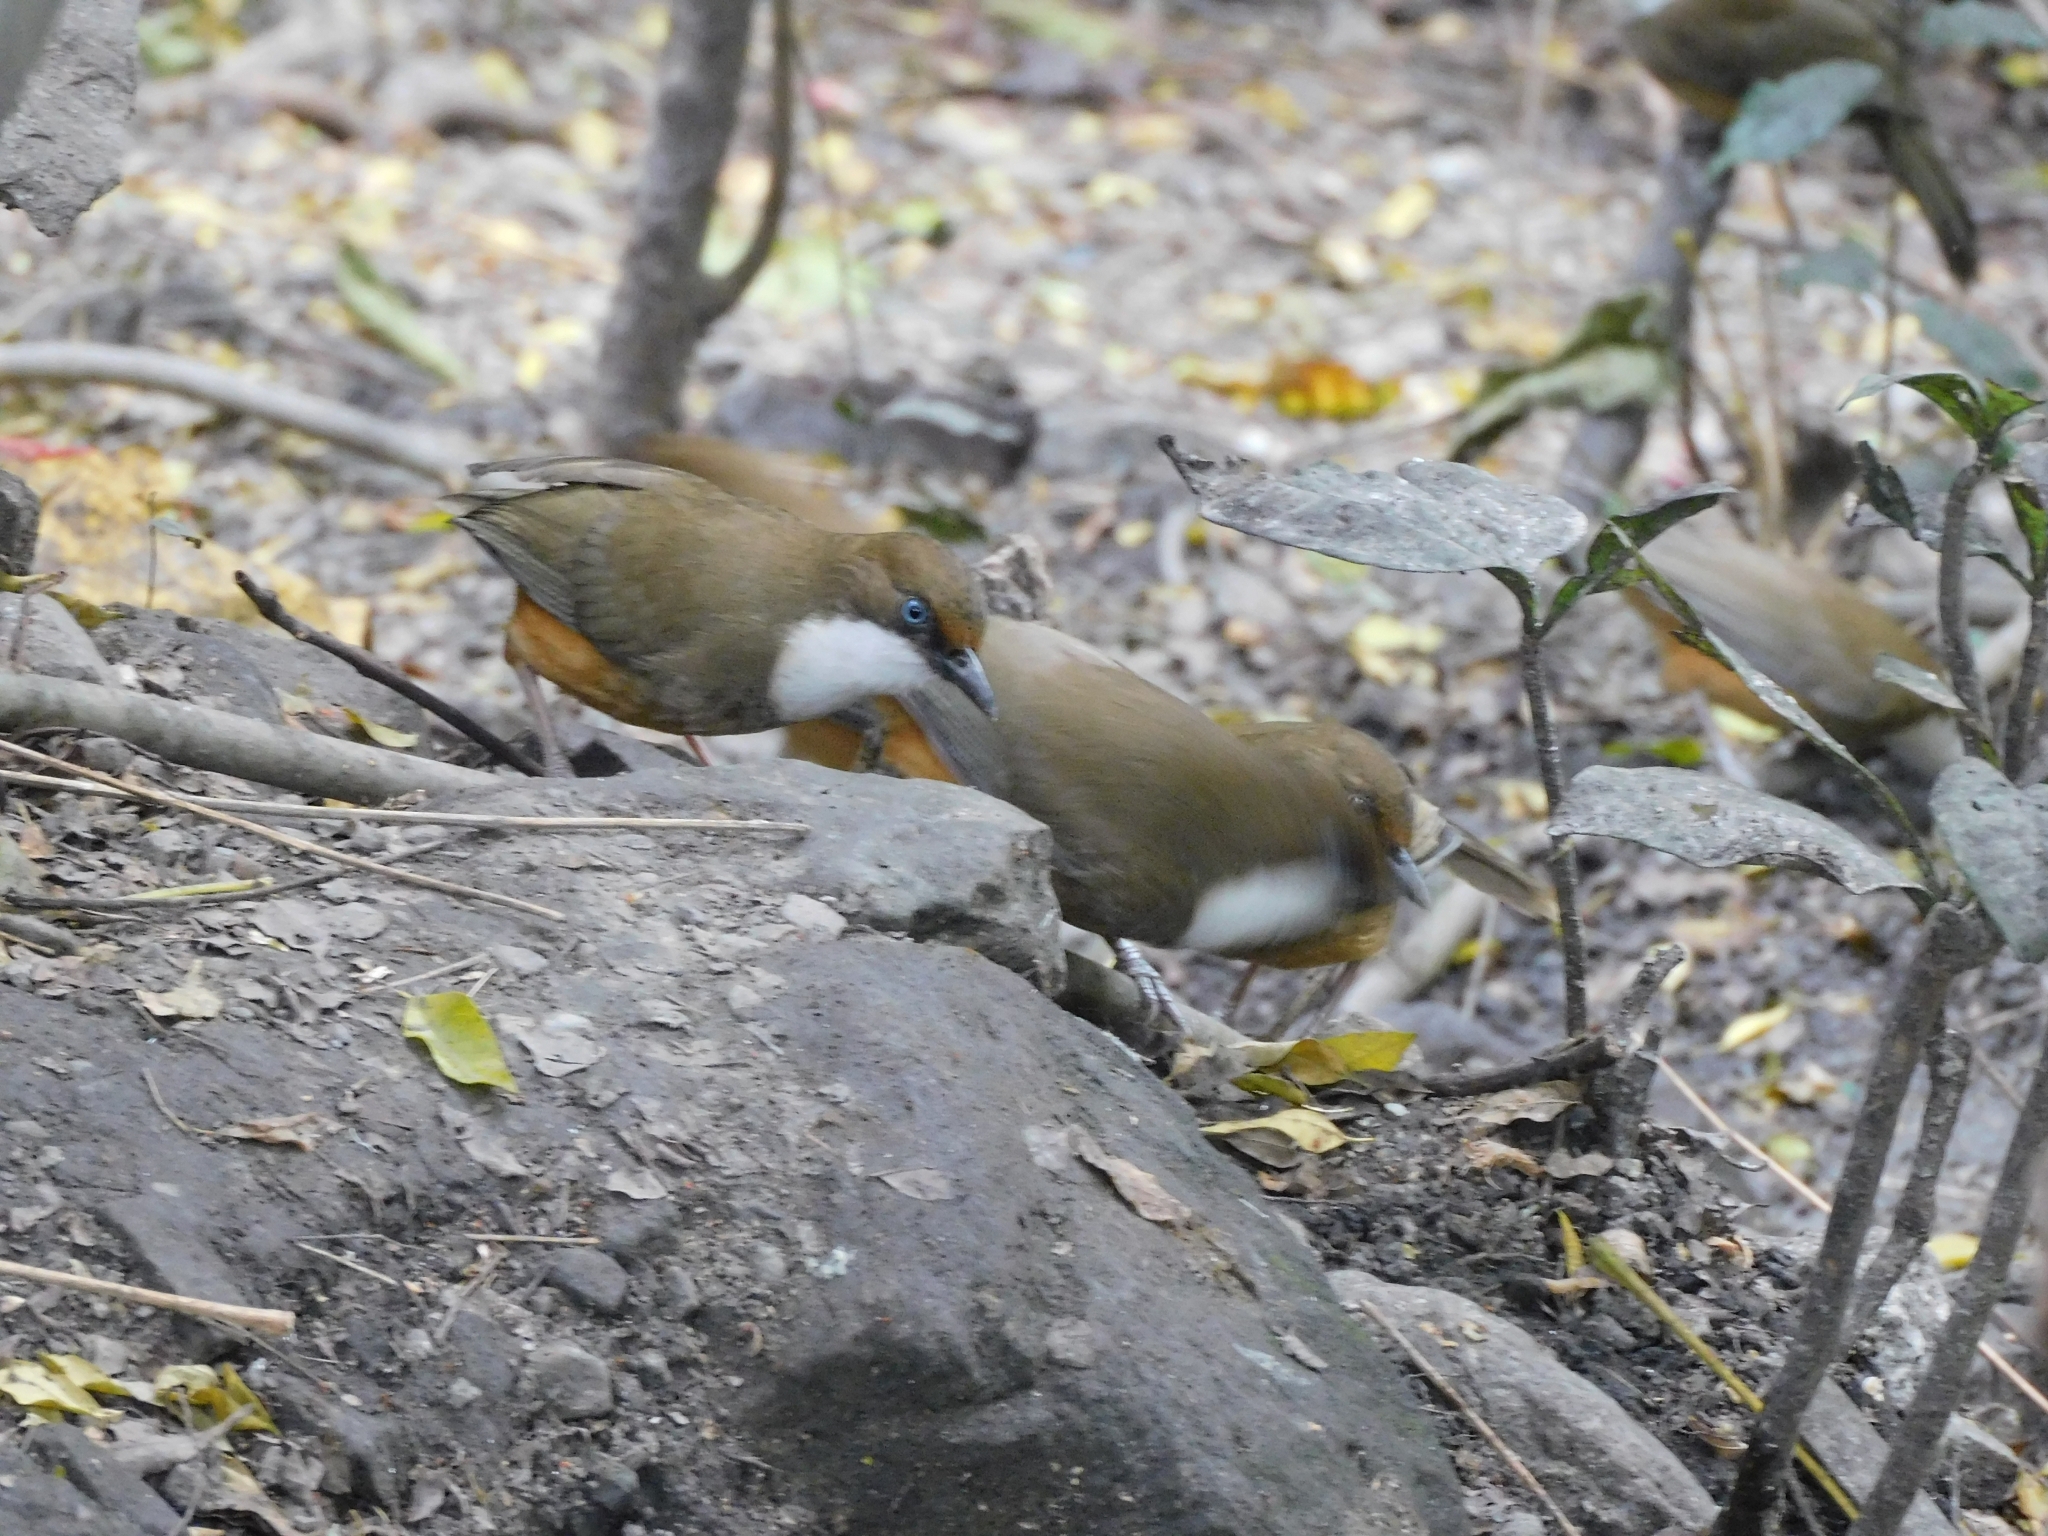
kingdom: Animalia
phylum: Chordata
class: Aves
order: Passeriformes
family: Leiothrichidae
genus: Garrulax
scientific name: Garrulax albogularis
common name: White-throated laughingthrush
